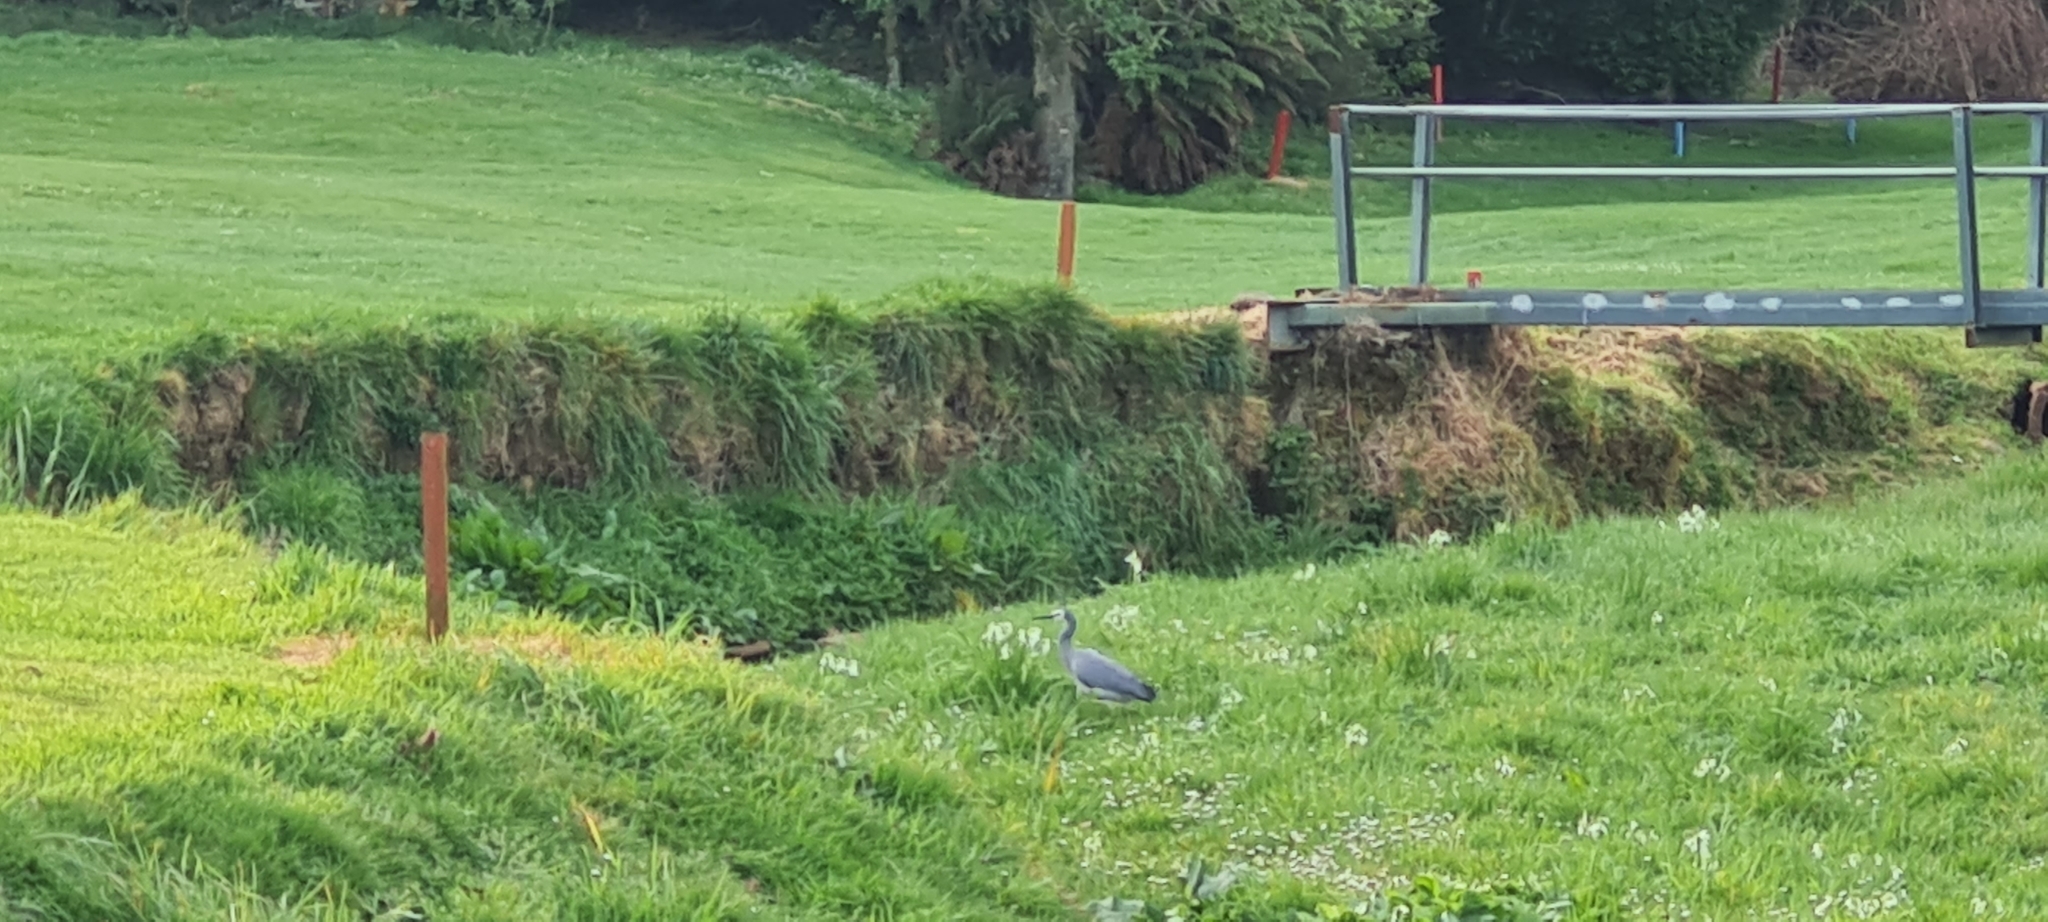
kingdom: Animalia
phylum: Chordata
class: Aves
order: Pelecaniformes
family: Ardeidae
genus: Egretta
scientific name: Egretta novaehollandiae
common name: White-faced heron
